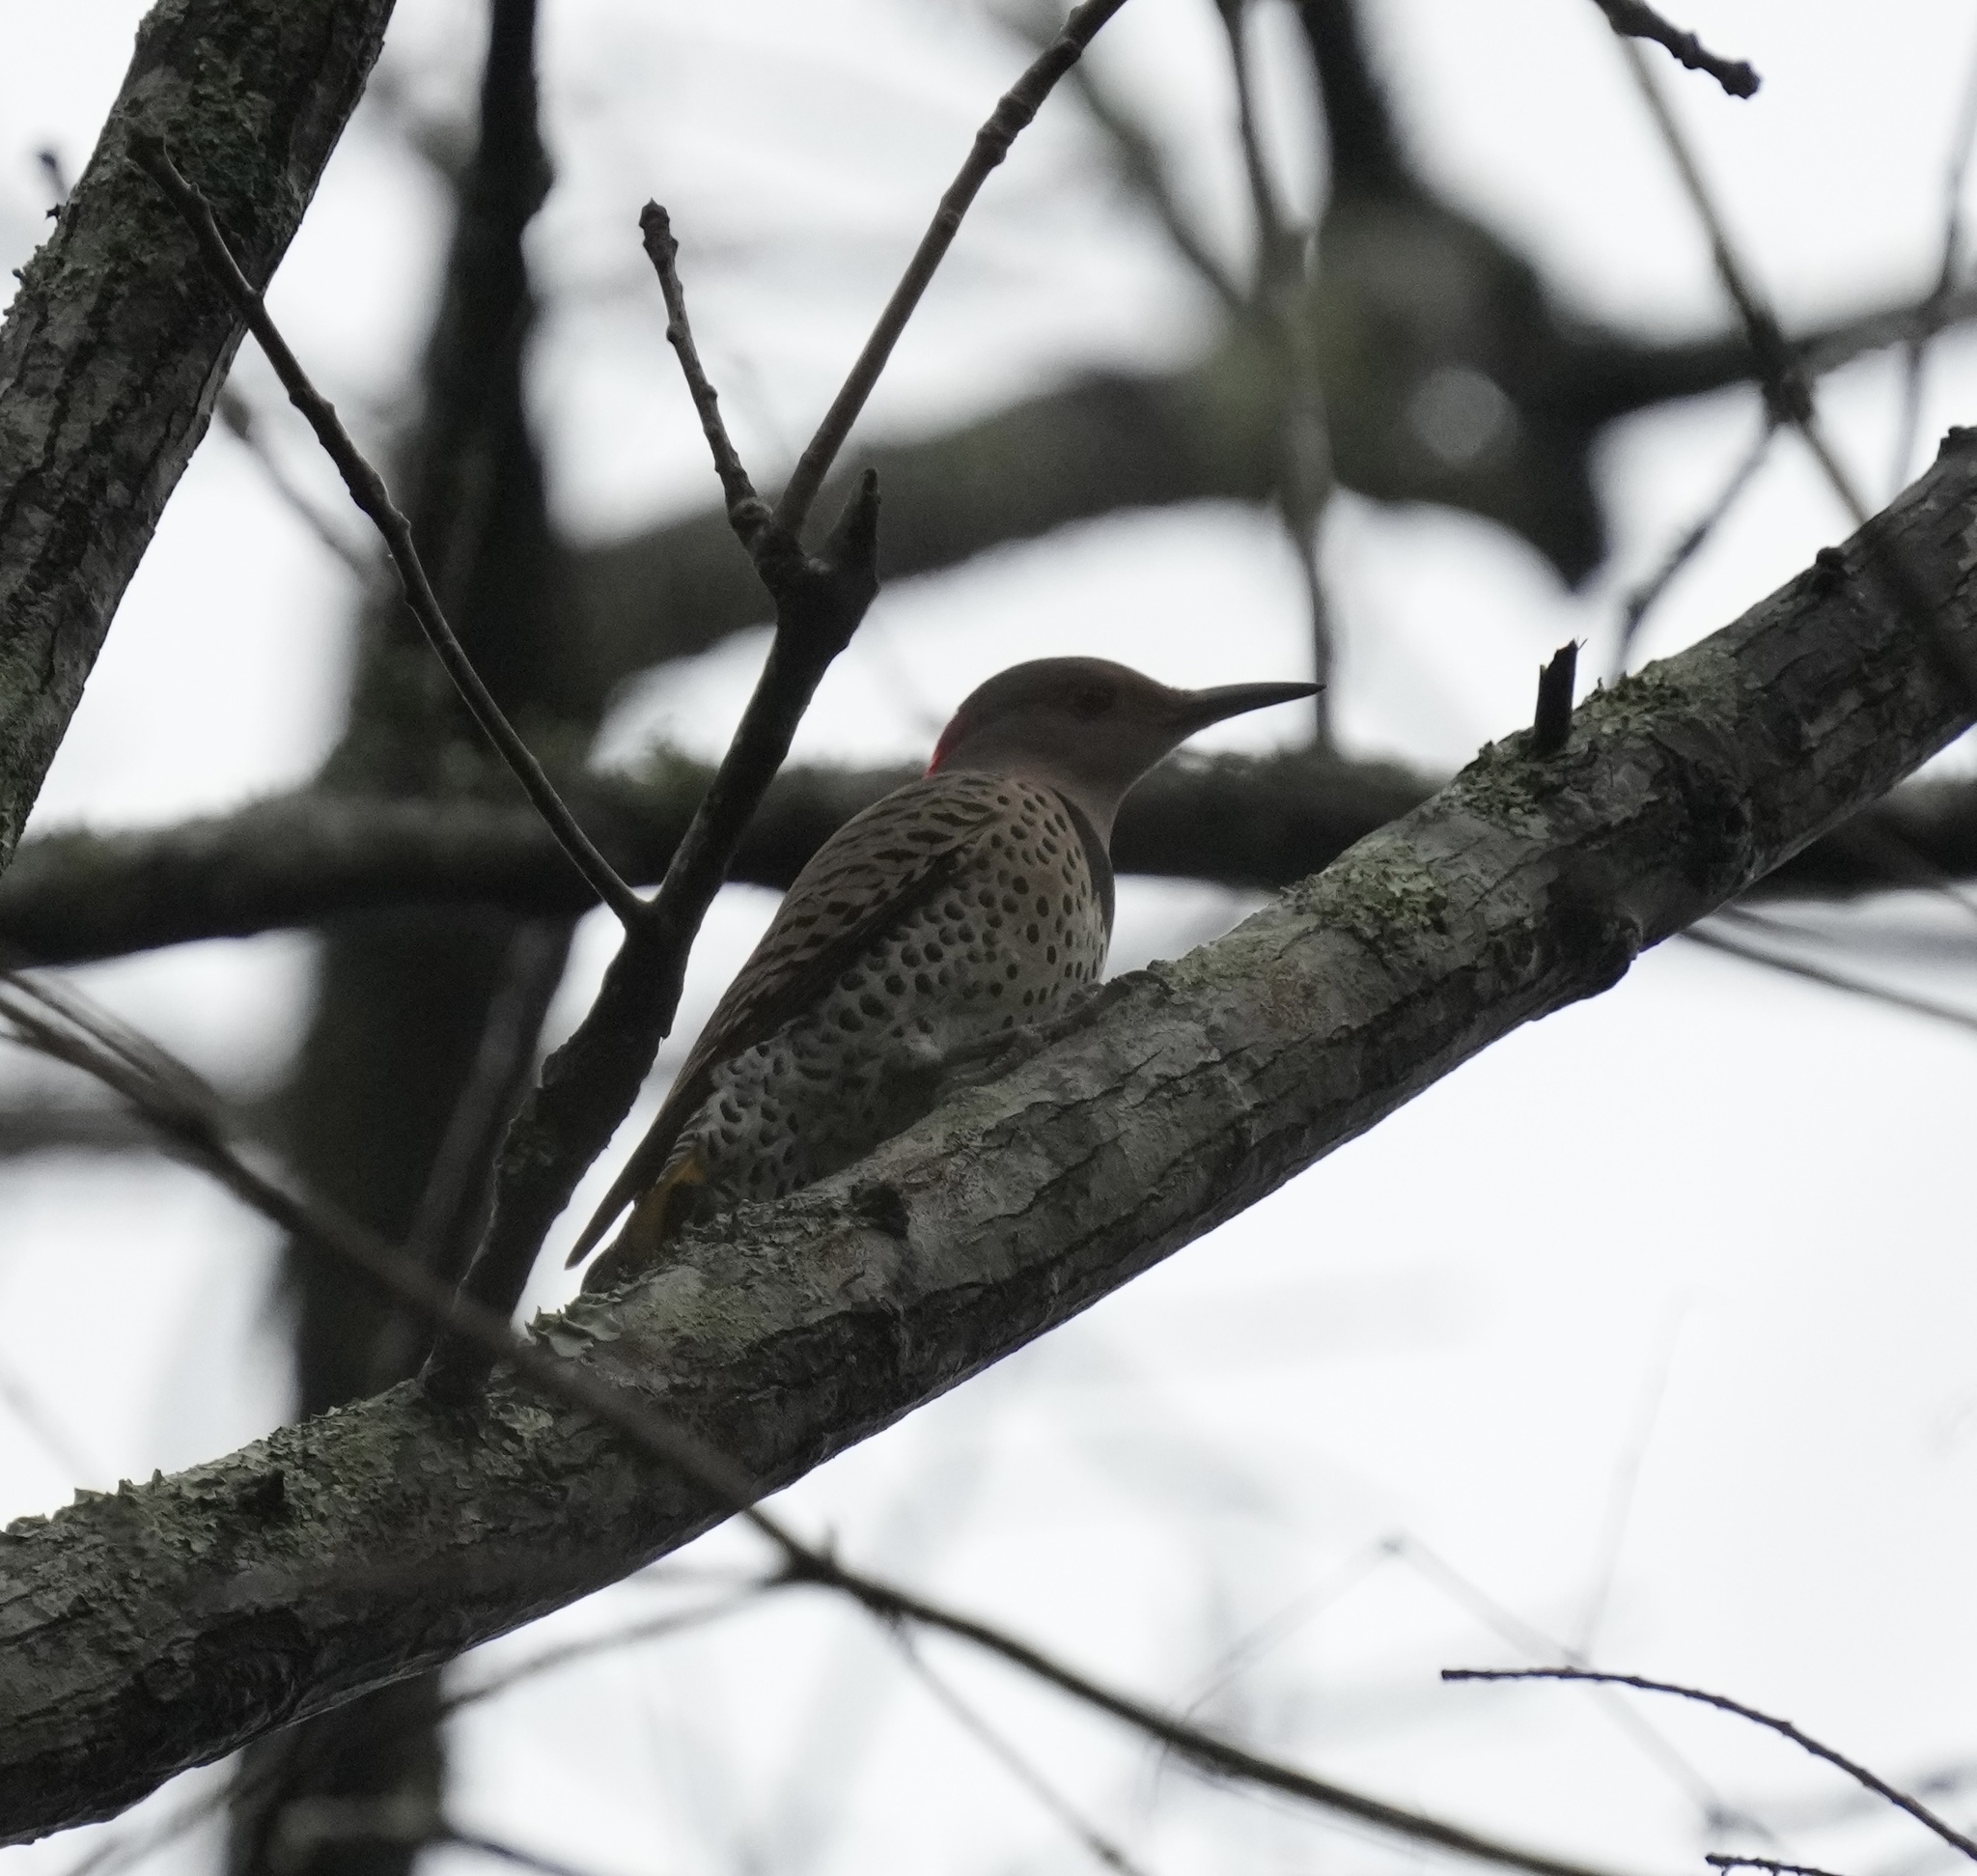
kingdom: Animalia
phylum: Chordata
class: Aves
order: Piciformes
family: Picidae
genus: Colaptes
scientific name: Colaptes auratus
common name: Northern flicker
